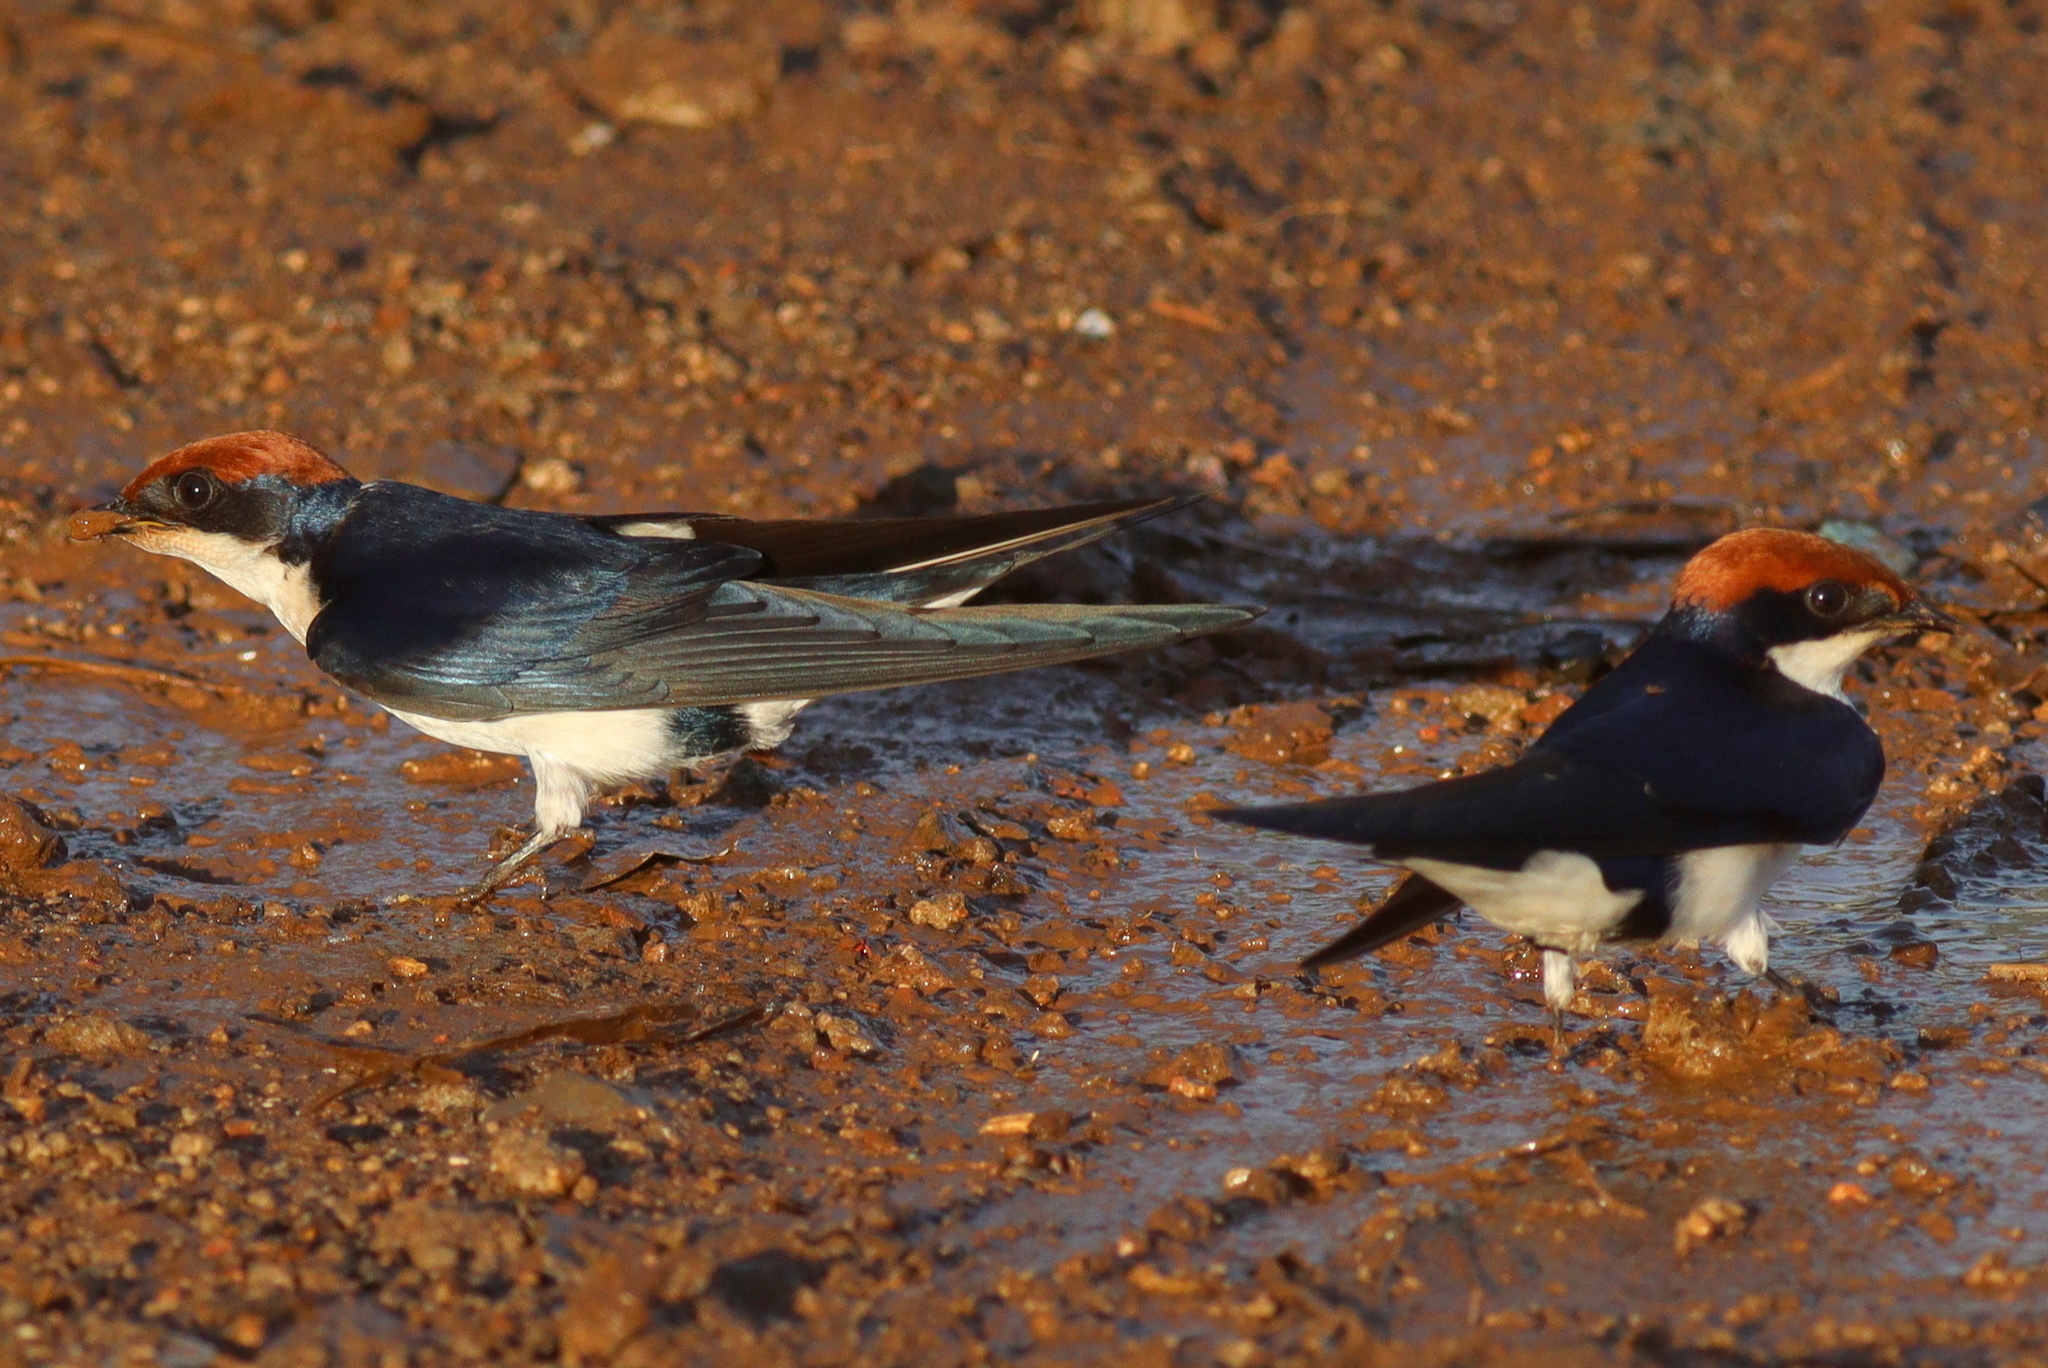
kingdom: Animalia
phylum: Chordata
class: Aves
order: Passeriformes
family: Hirundinidae
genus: Hirundo
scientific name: Hirundo smithii
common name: Wire-tailed swallow
